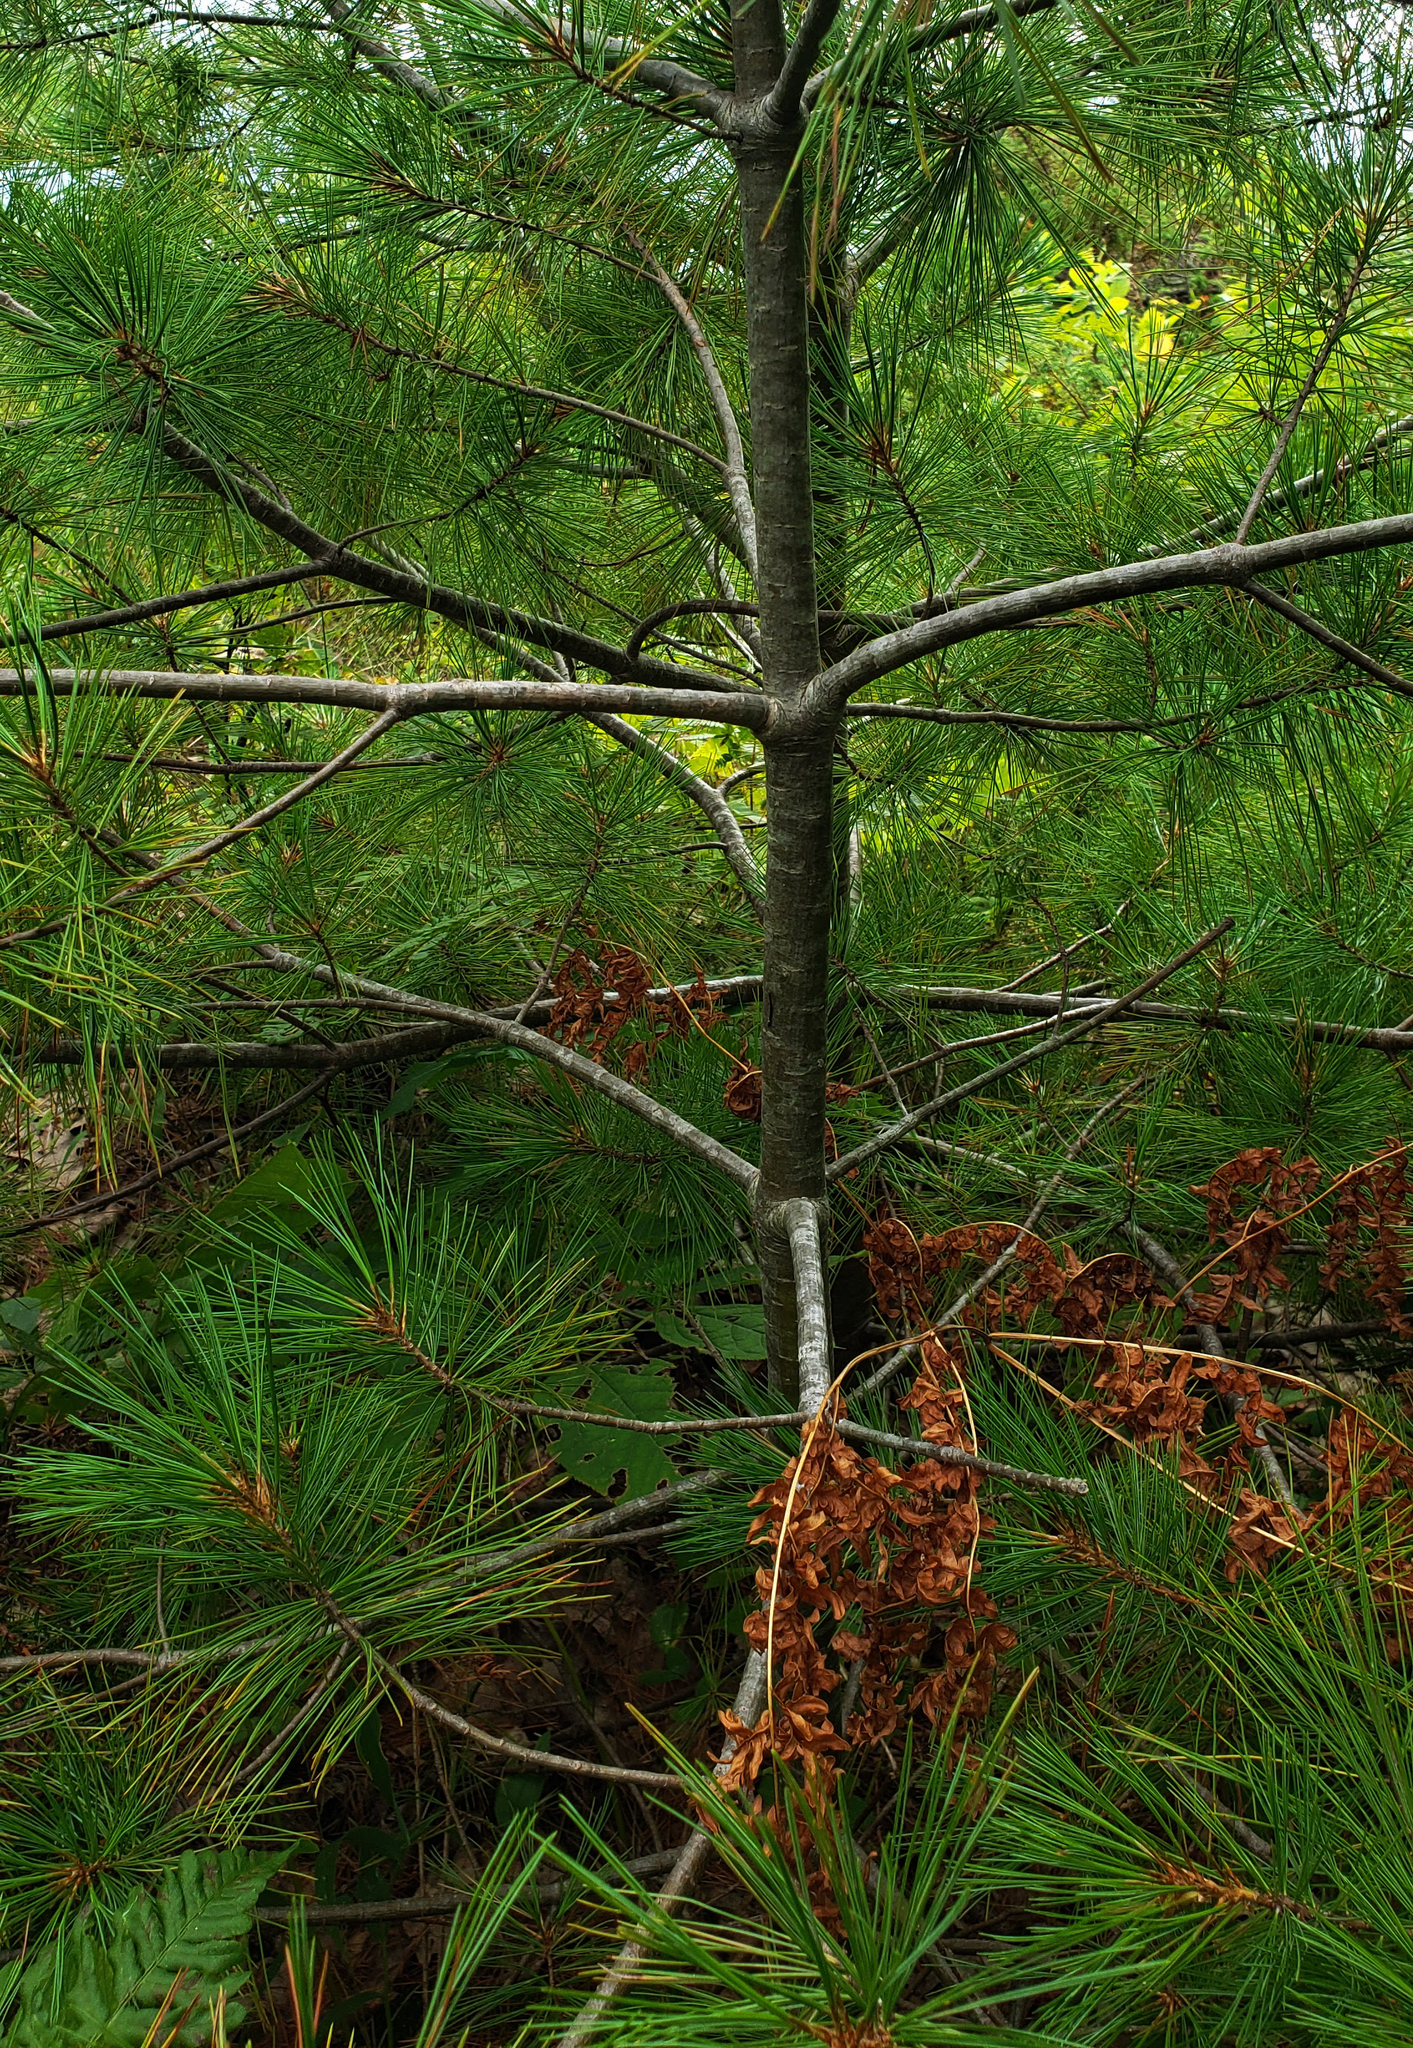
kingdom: Plantae
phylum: Tracheophyta
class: Pinopsida
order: Pinales
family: Pinaceae
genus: Pinus
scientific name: Pinus strobus
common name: Weymouth pine
